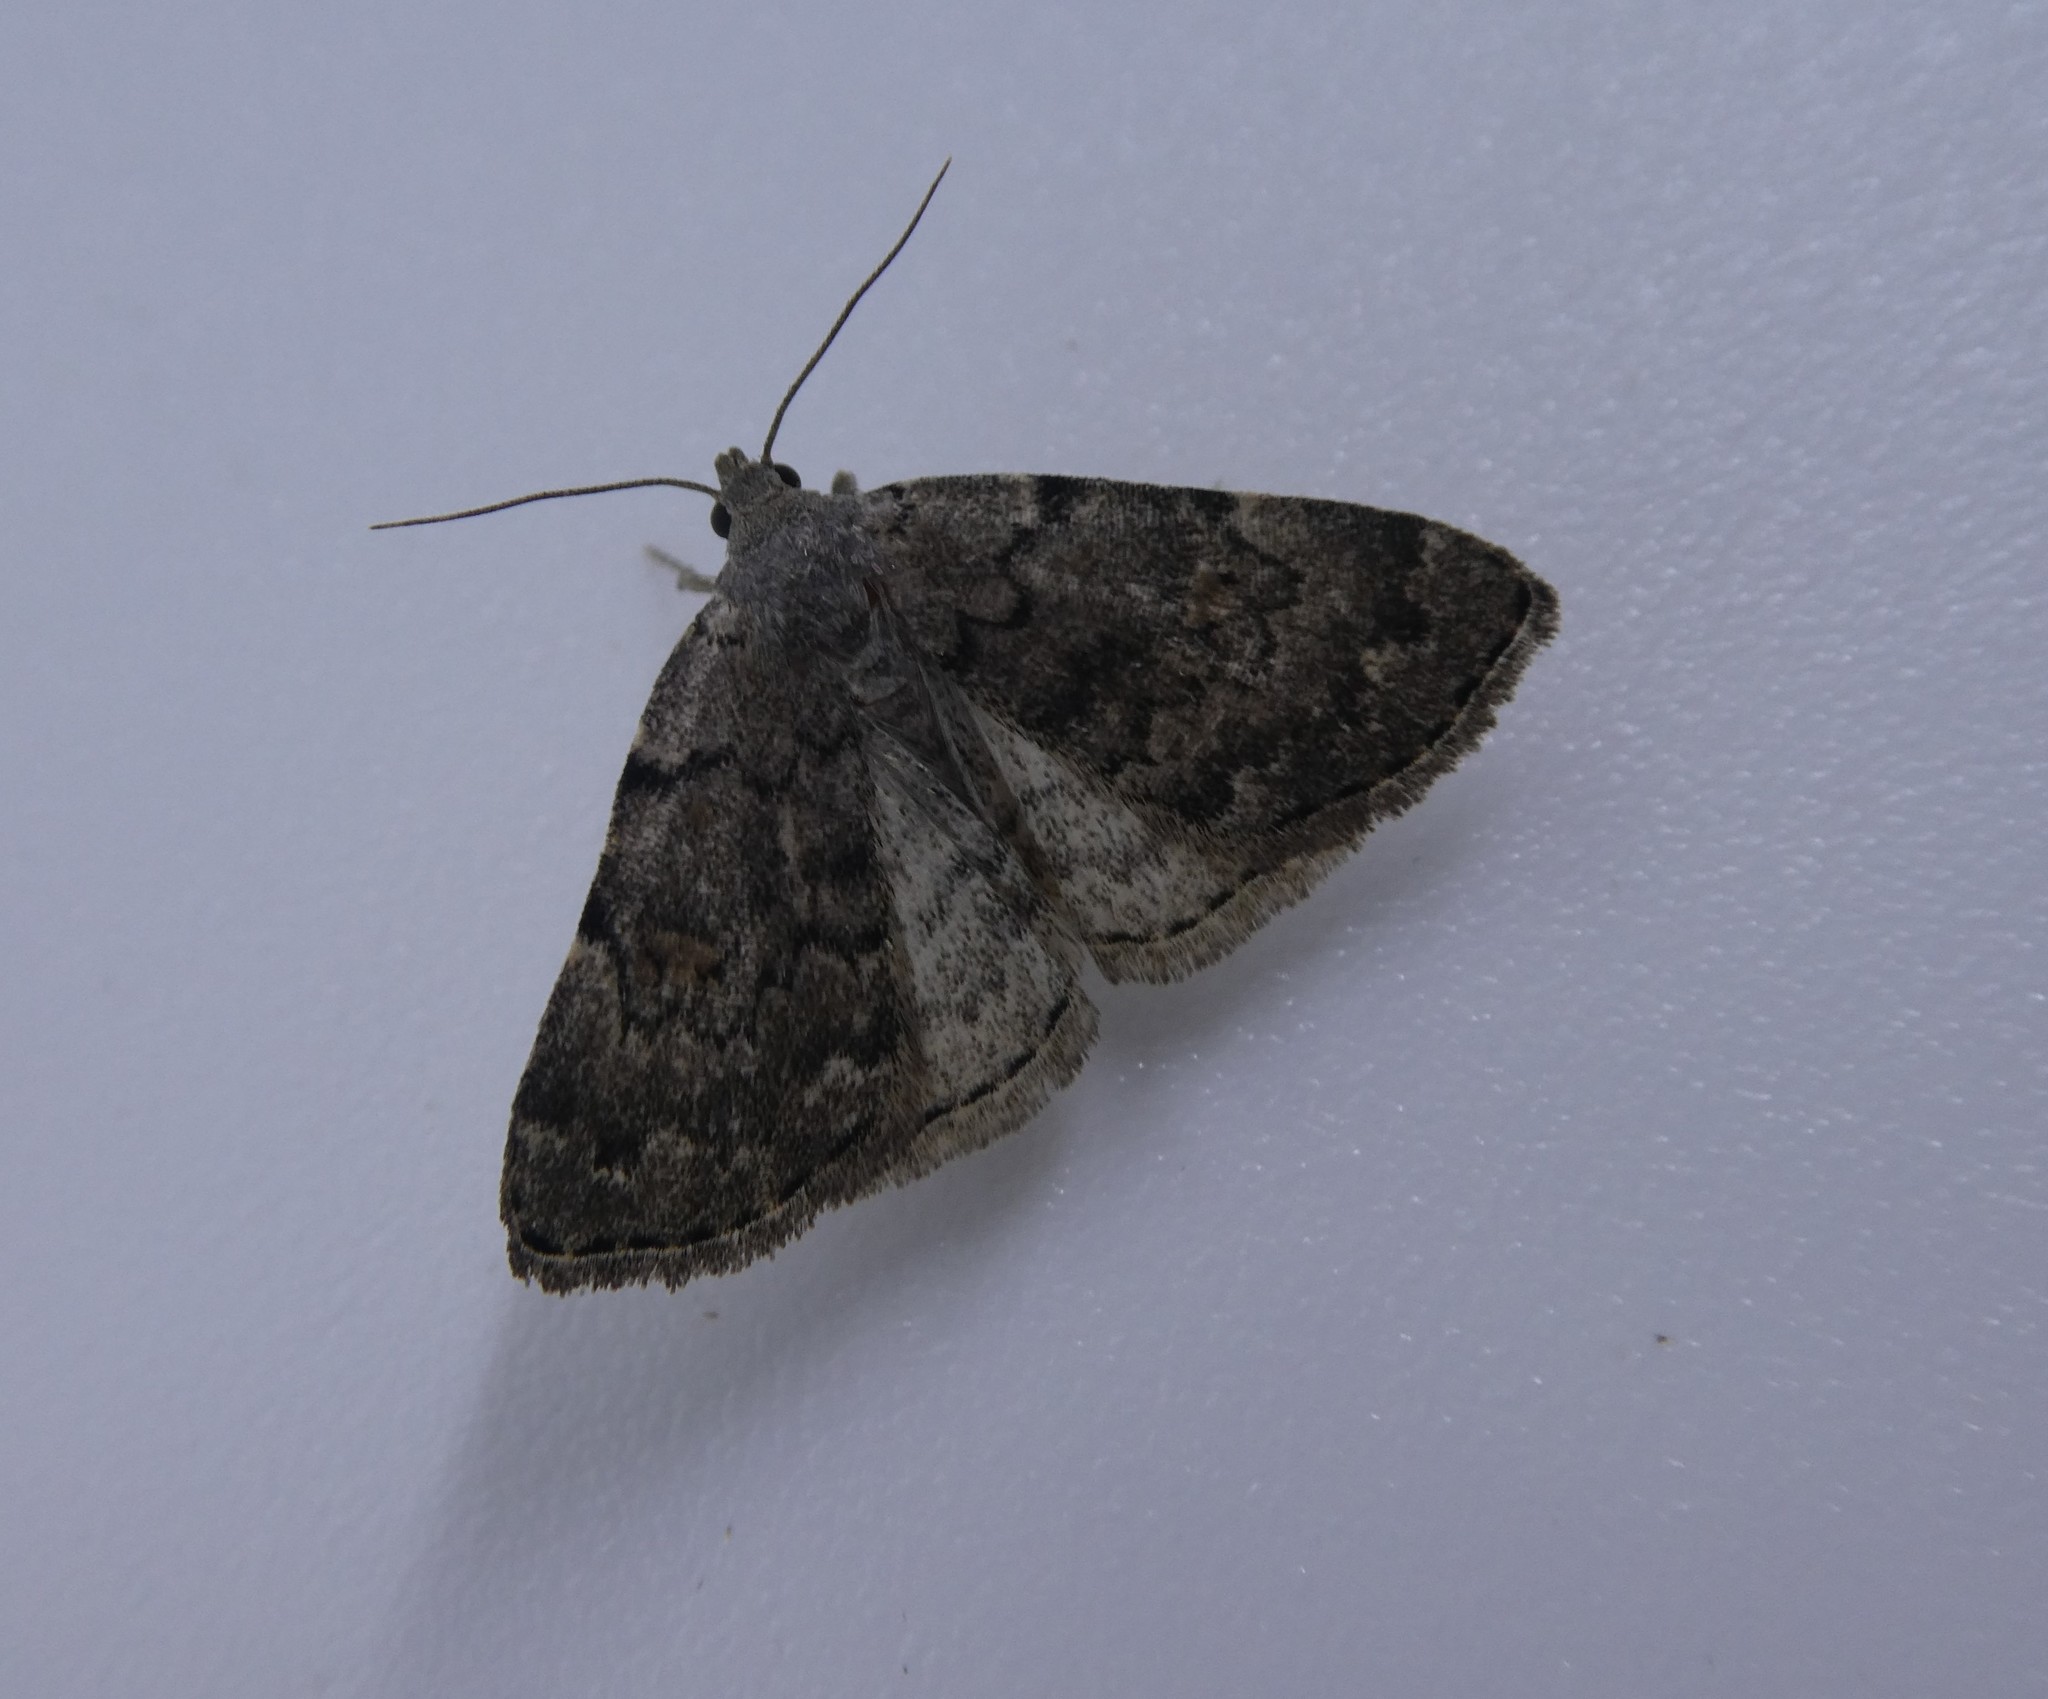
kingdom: Animalia
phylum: Arthropoda
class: Insecta
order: Lepidoptera
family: Erebidae
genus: Idia
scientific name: Idia aemula
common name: Common idia moth
